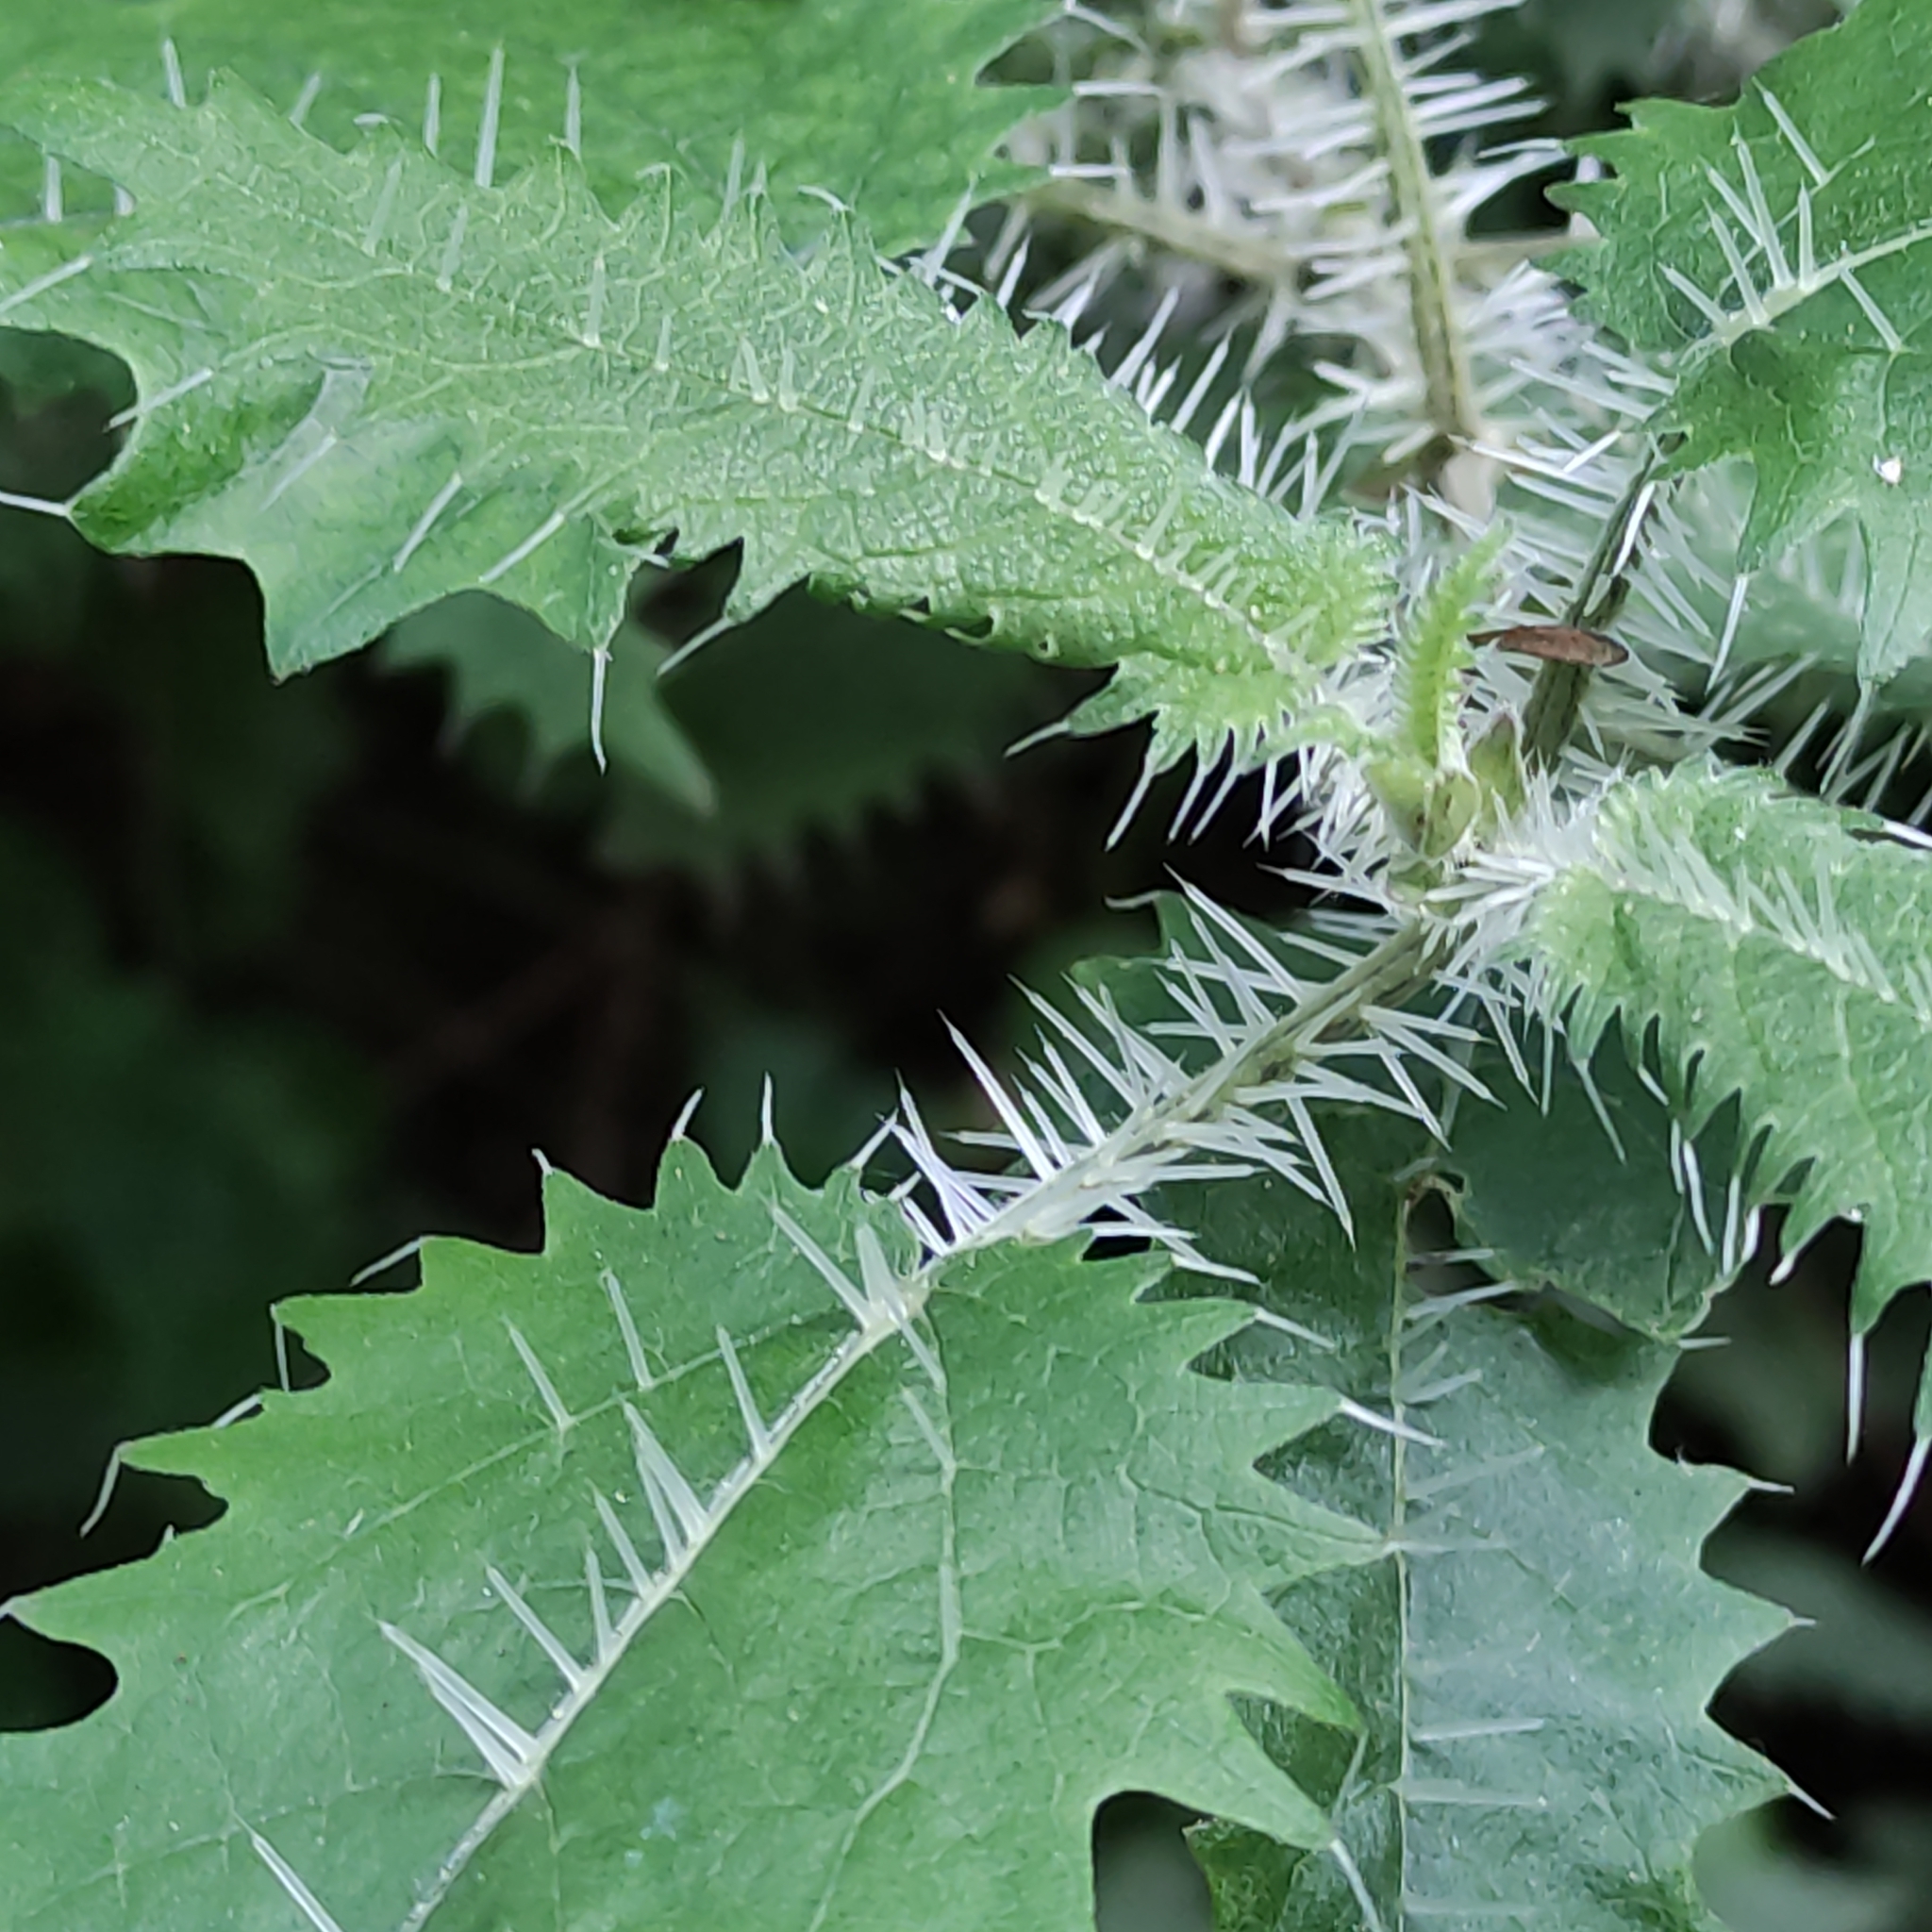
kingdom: Plantae
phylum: Tracheophyta
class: Magnoliopsida
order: Rosales
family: Urticaceae
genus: Urtica
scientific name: Urtica ferox
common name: Tree nettle
